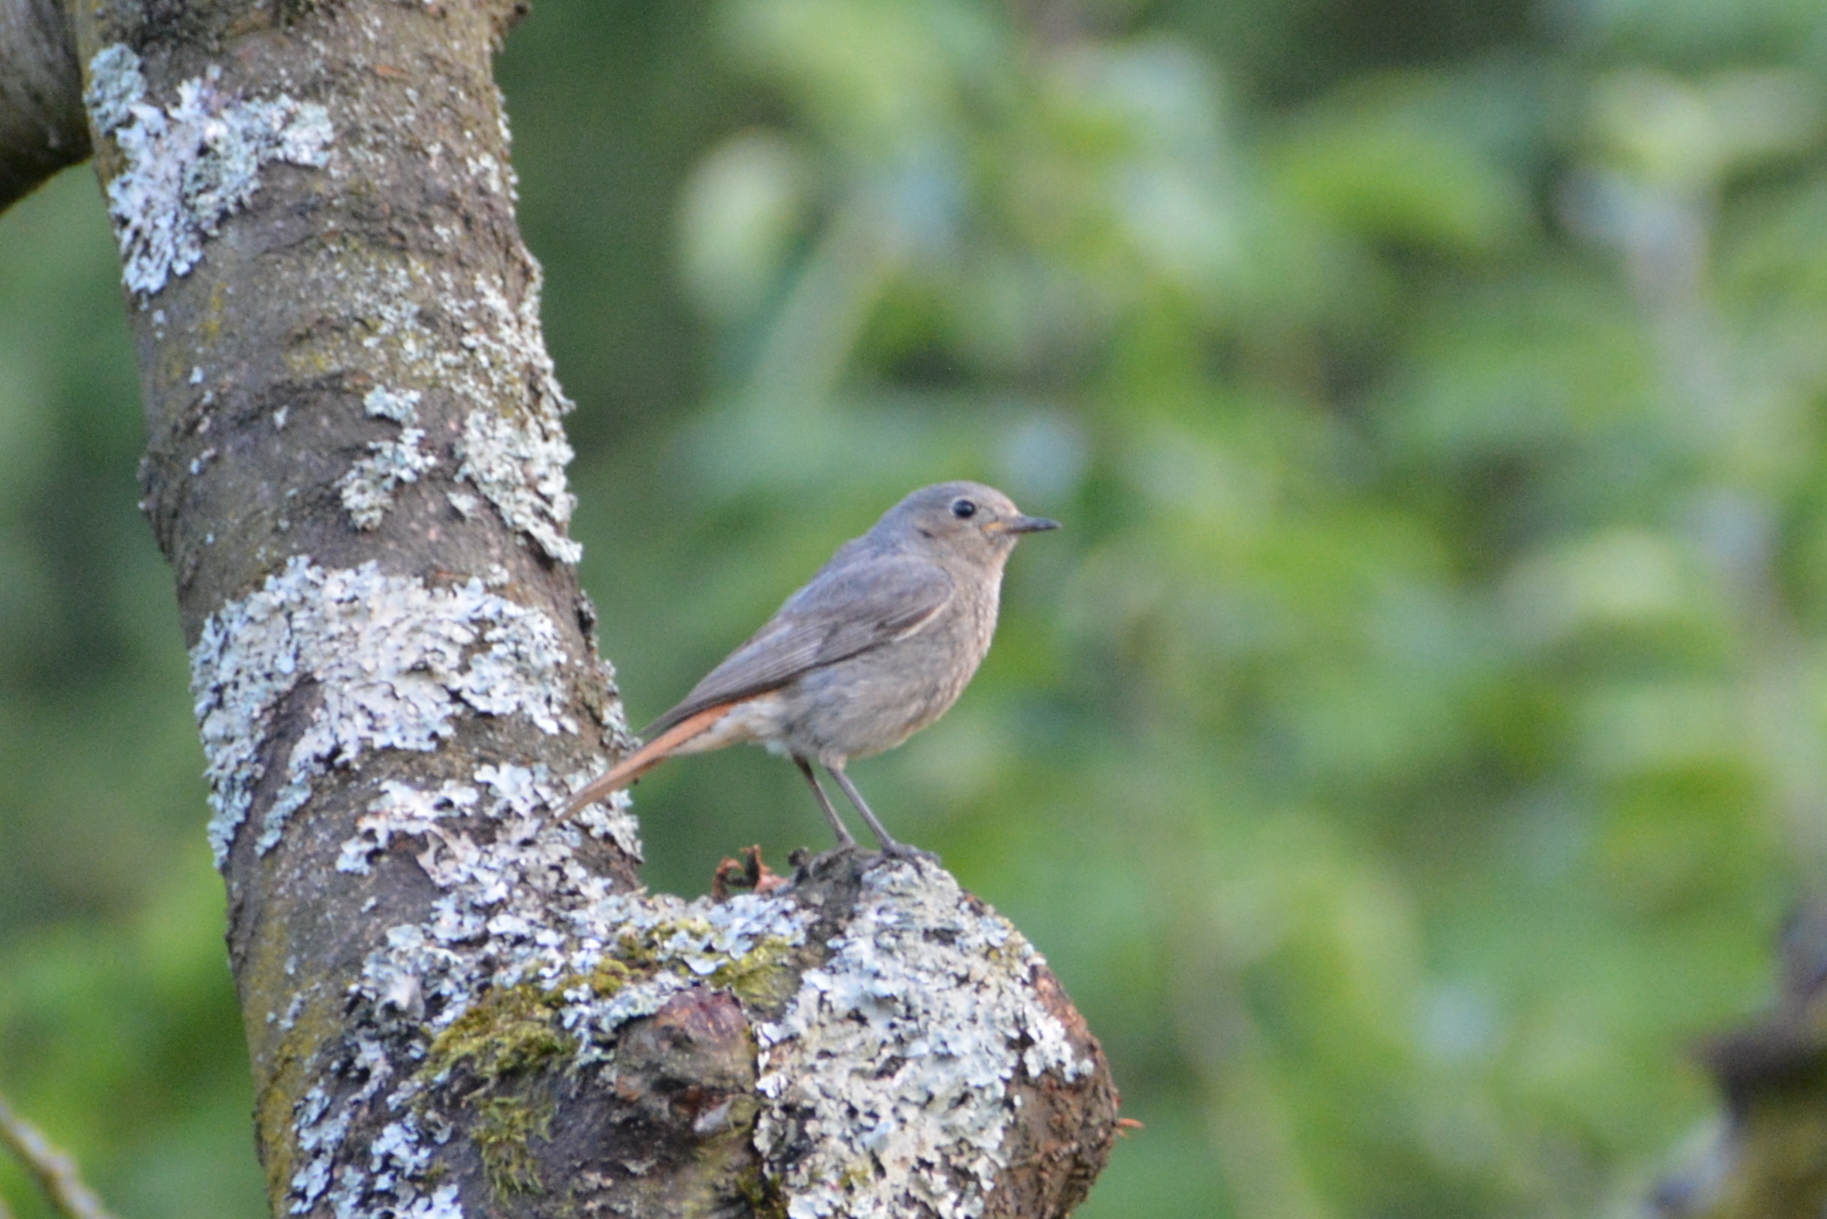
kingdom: Animalia
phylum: Chordata
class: Aves
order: Passeriformes
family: Muscicapidae
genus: Phoenicurus
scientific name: Phoenicurus ochruros
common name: Black redstart
